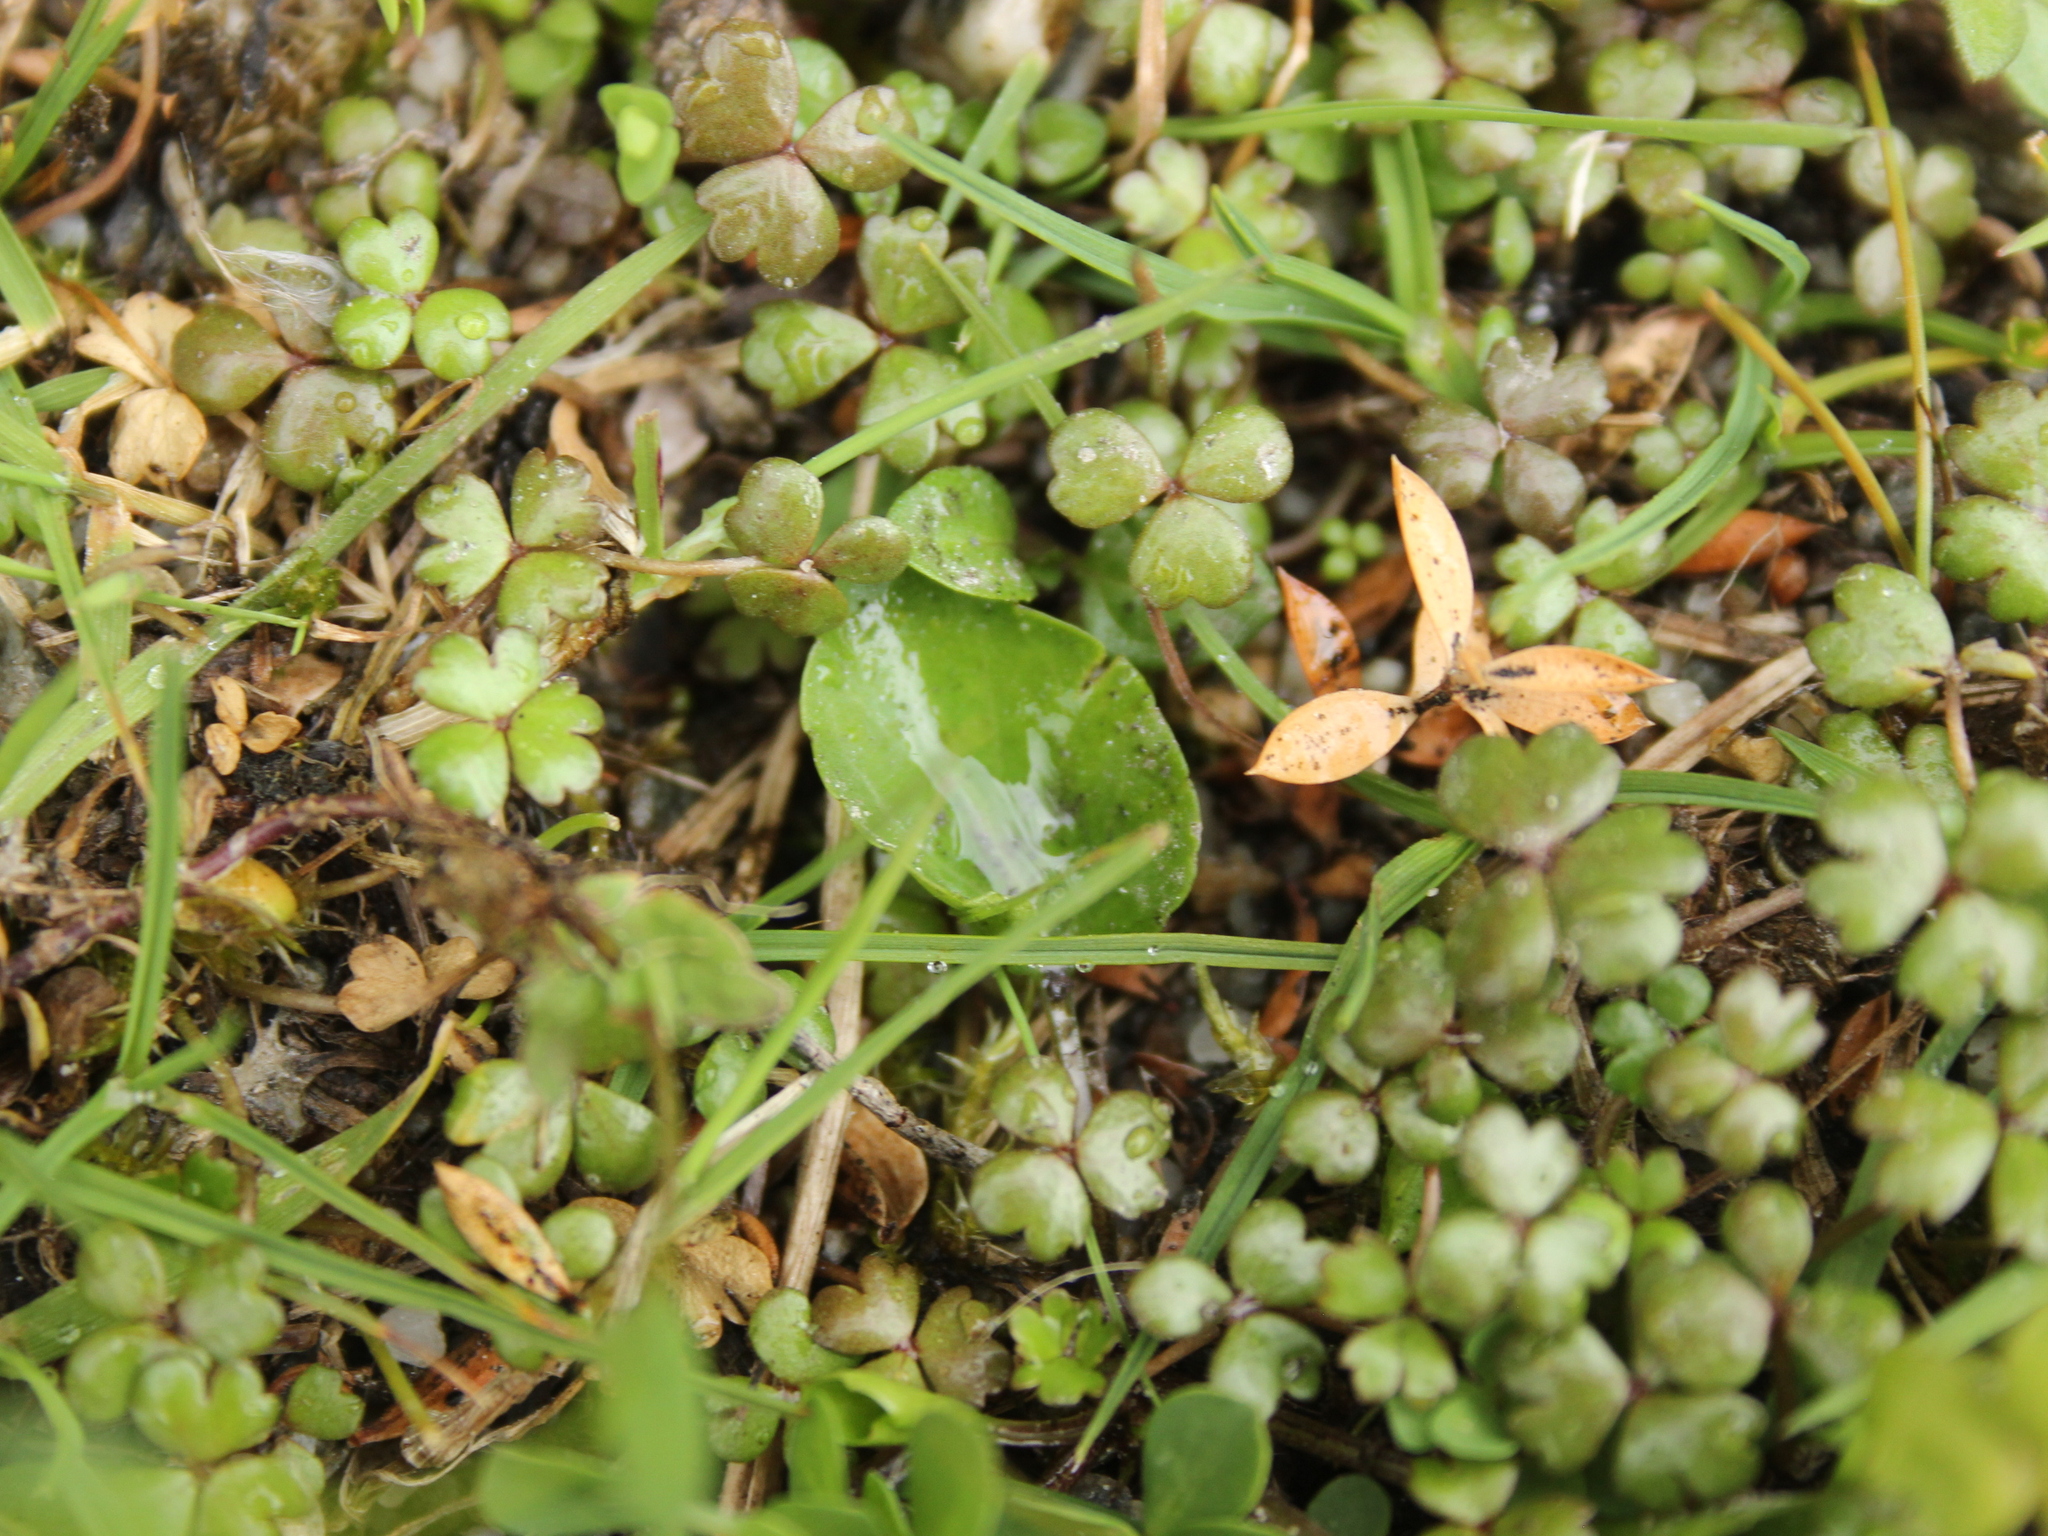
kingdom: Plantae
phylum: Tracheophyta
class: Magnoliopsida
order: Malpighiales
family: Violaceae
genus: Viola
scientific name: Viola cunninghamii
